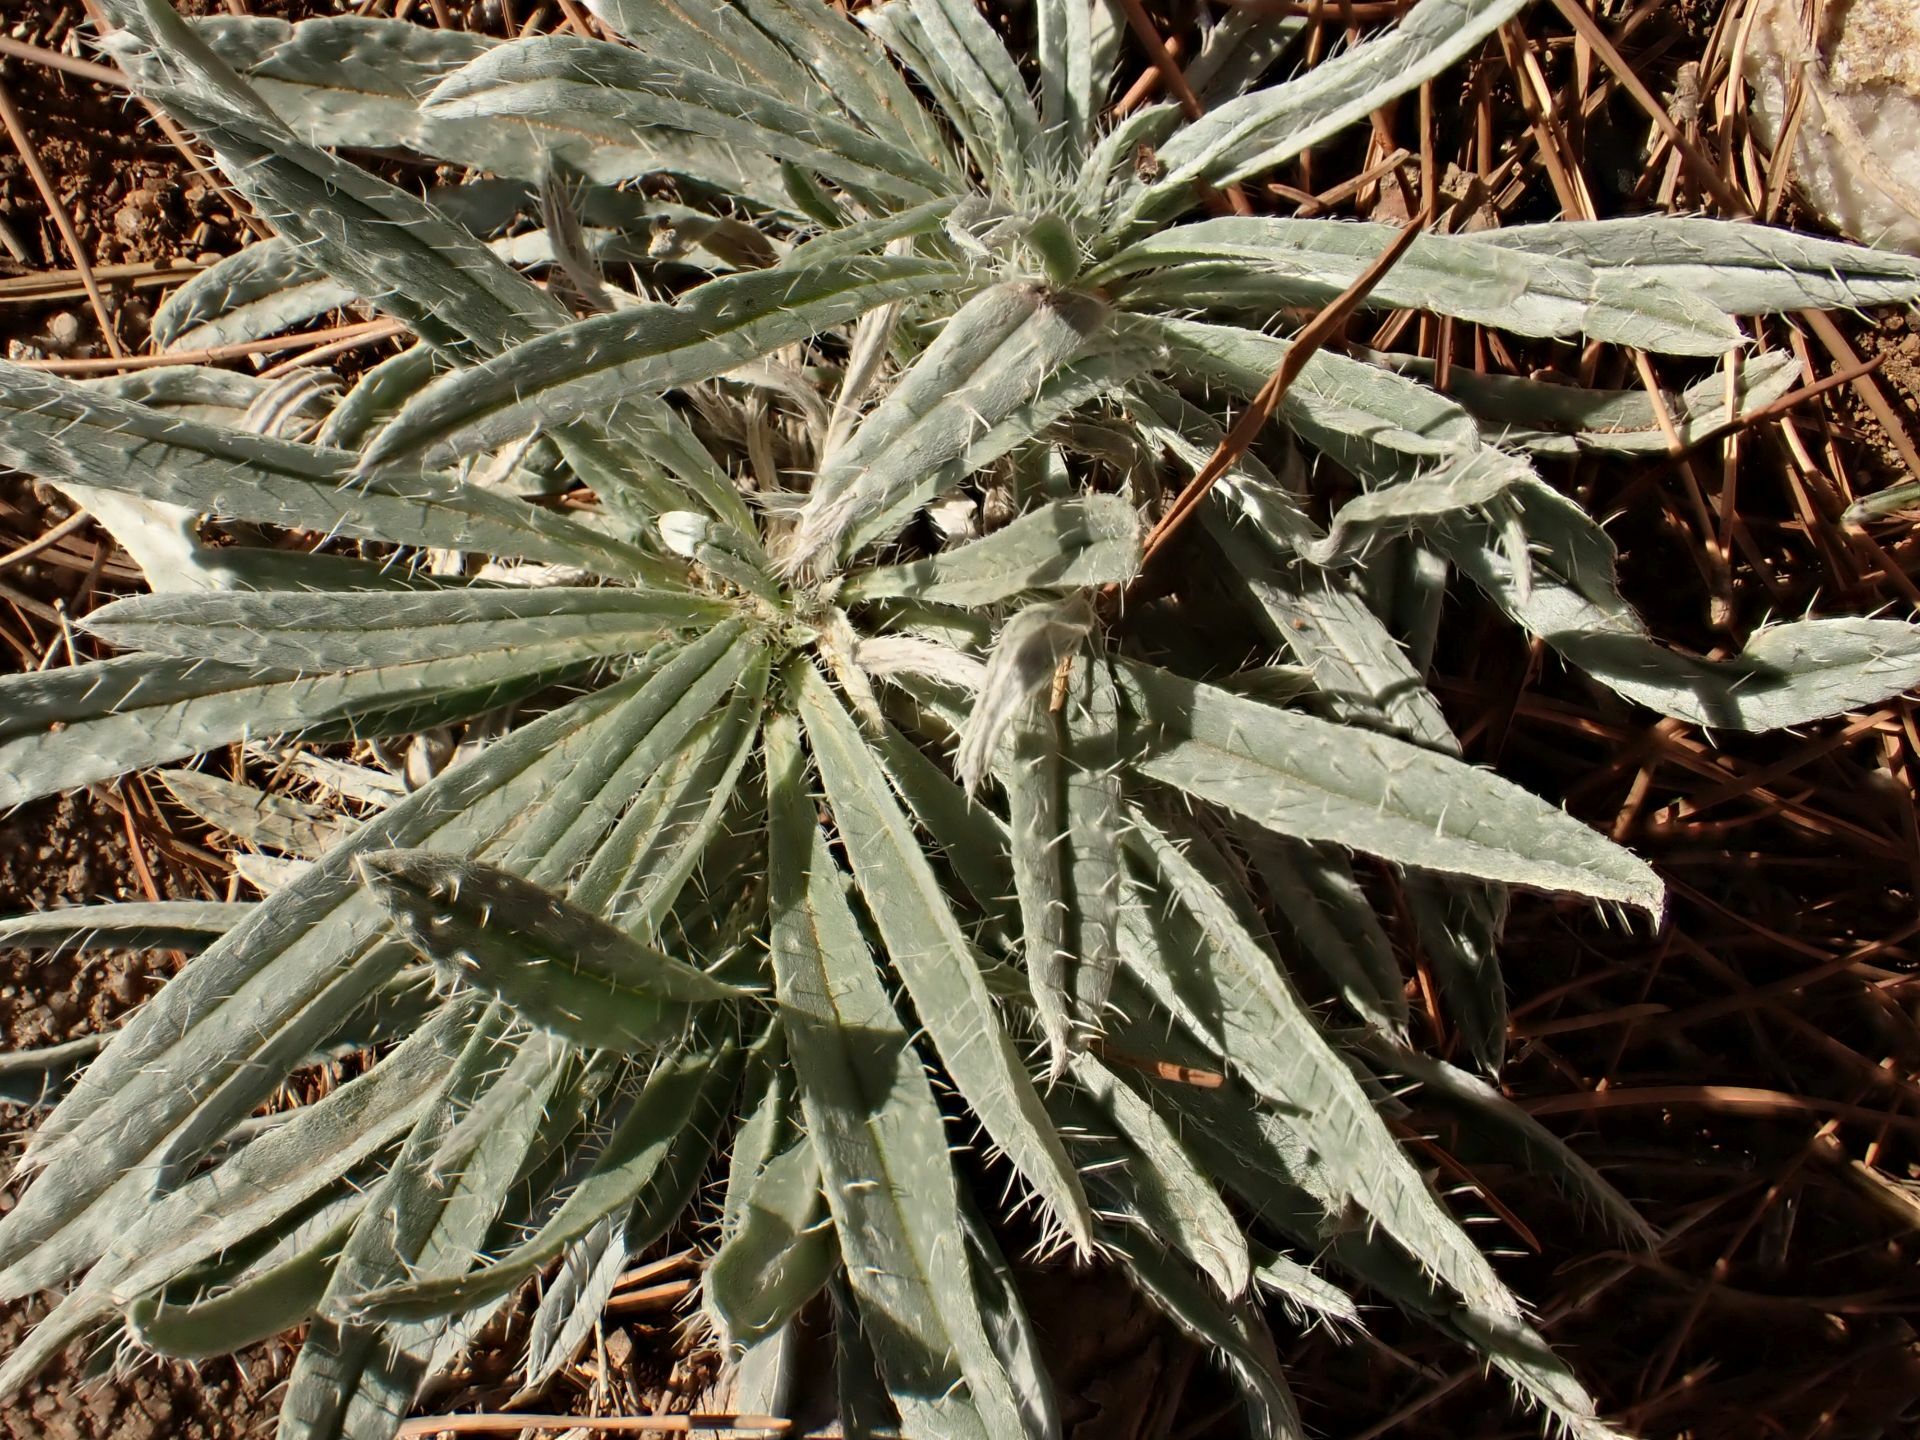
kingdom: Plantae
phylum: Tracheophyta
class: Magnoliopsida
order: Boraginales
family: Boraginaceae
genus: Echium
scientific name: Echium albicans
